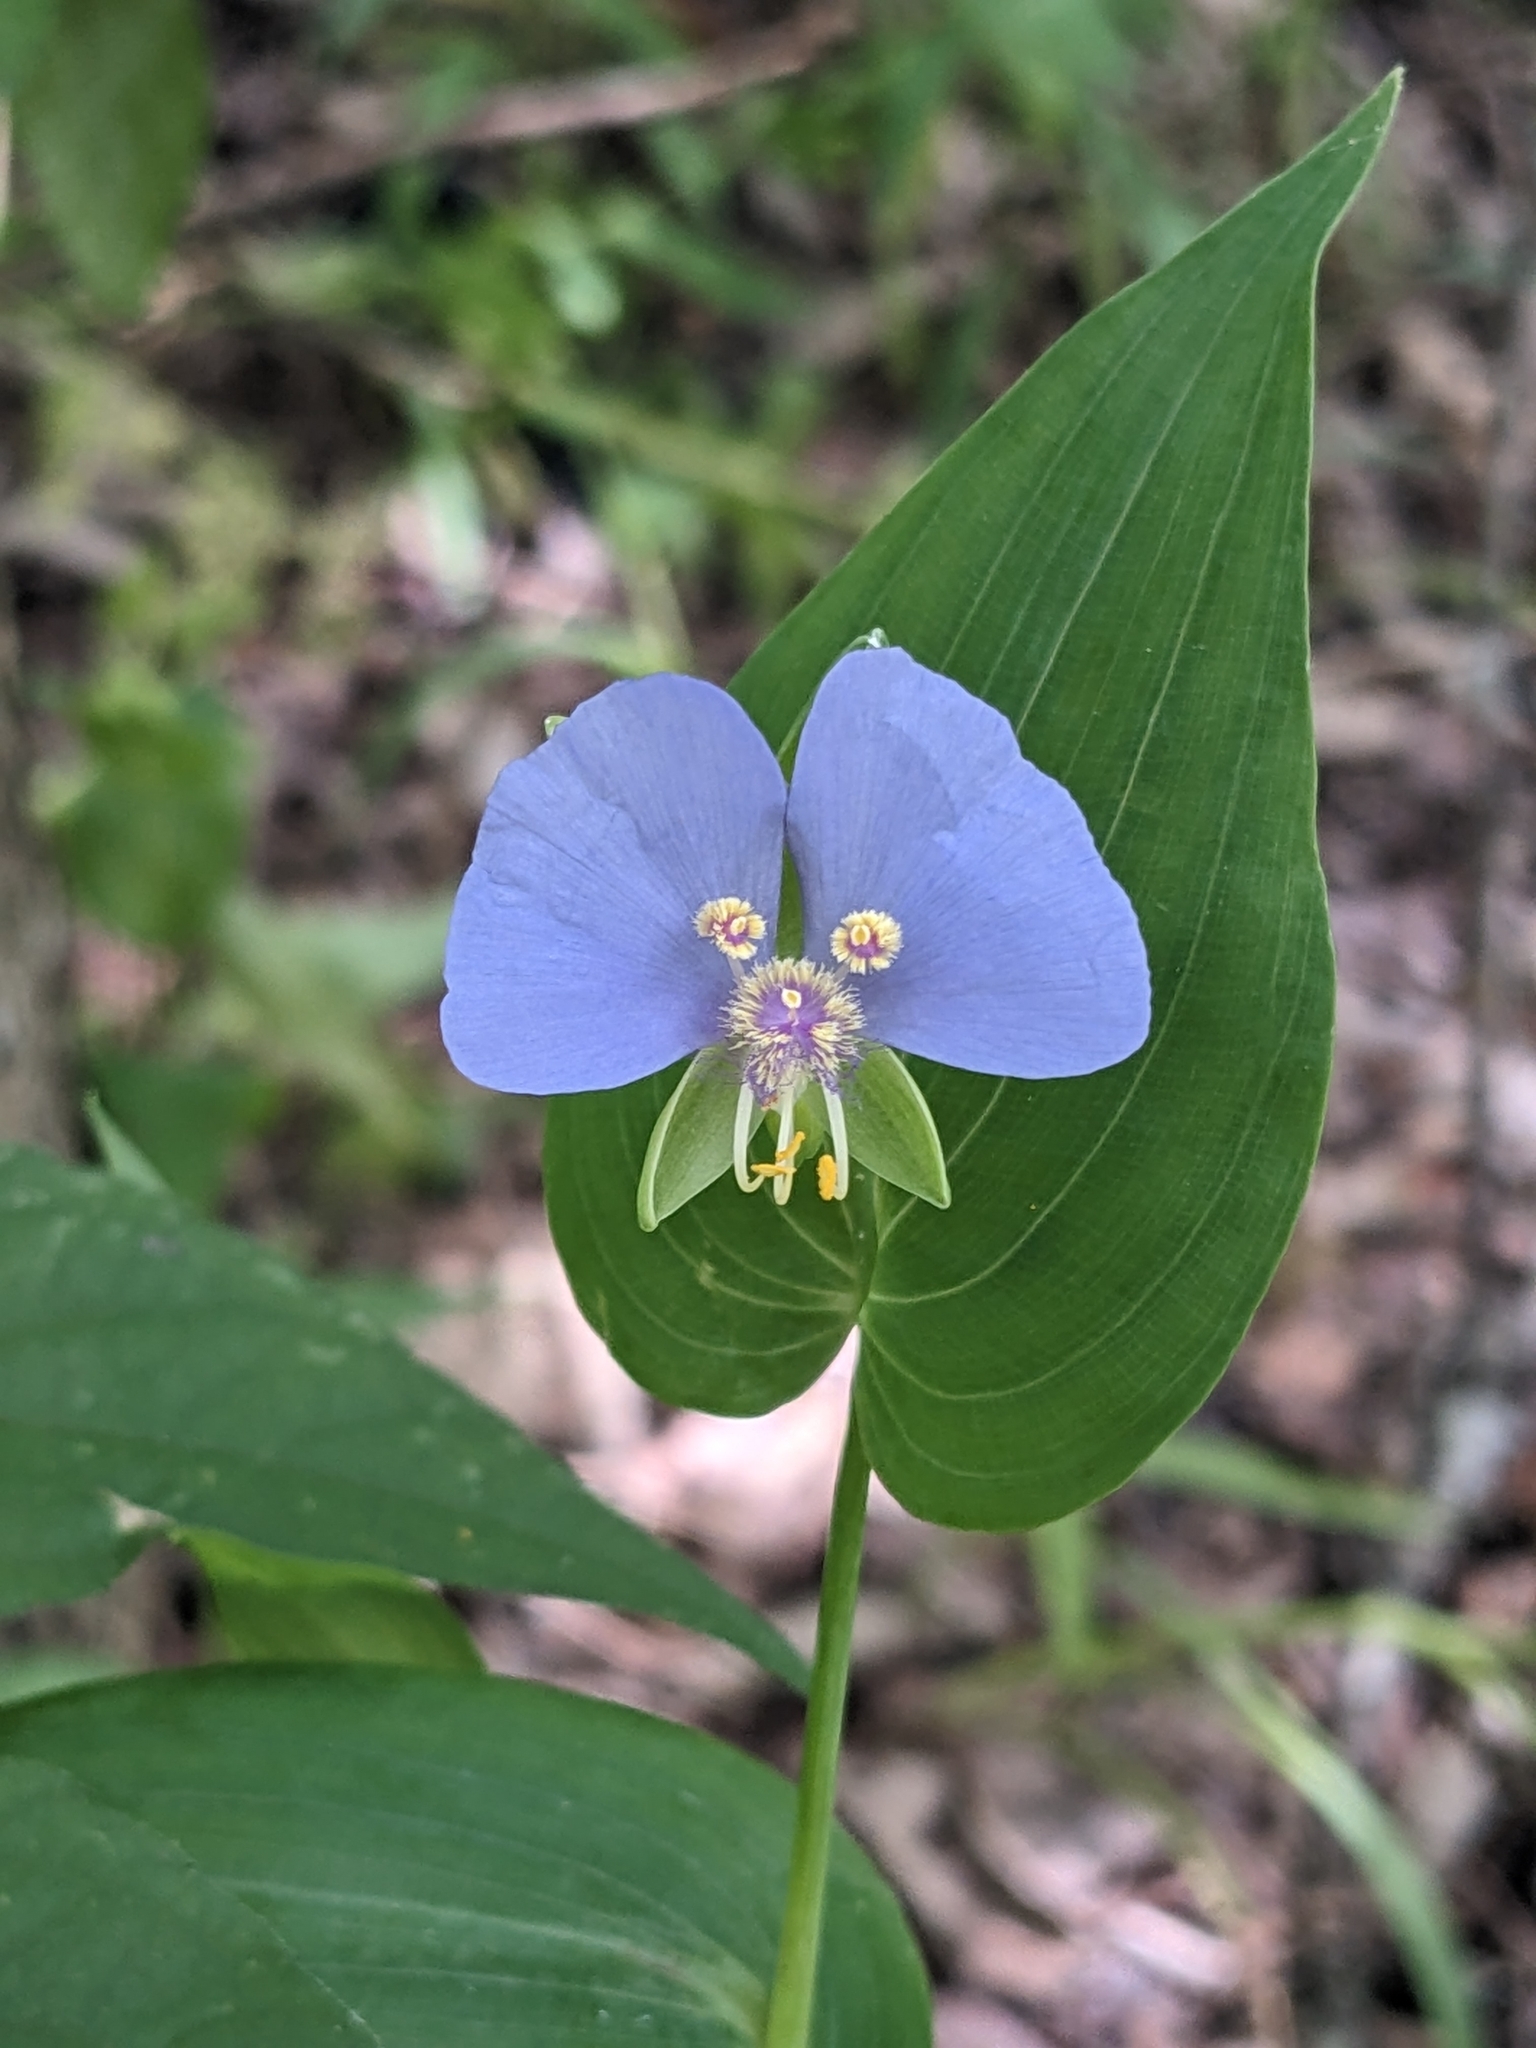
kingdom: Plantae
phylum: Tracheophyta
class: Liliopsida
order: Commelinales
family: Commelinaceae
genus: Tinantia
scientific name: Tinantia anomala
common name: False dayflower
